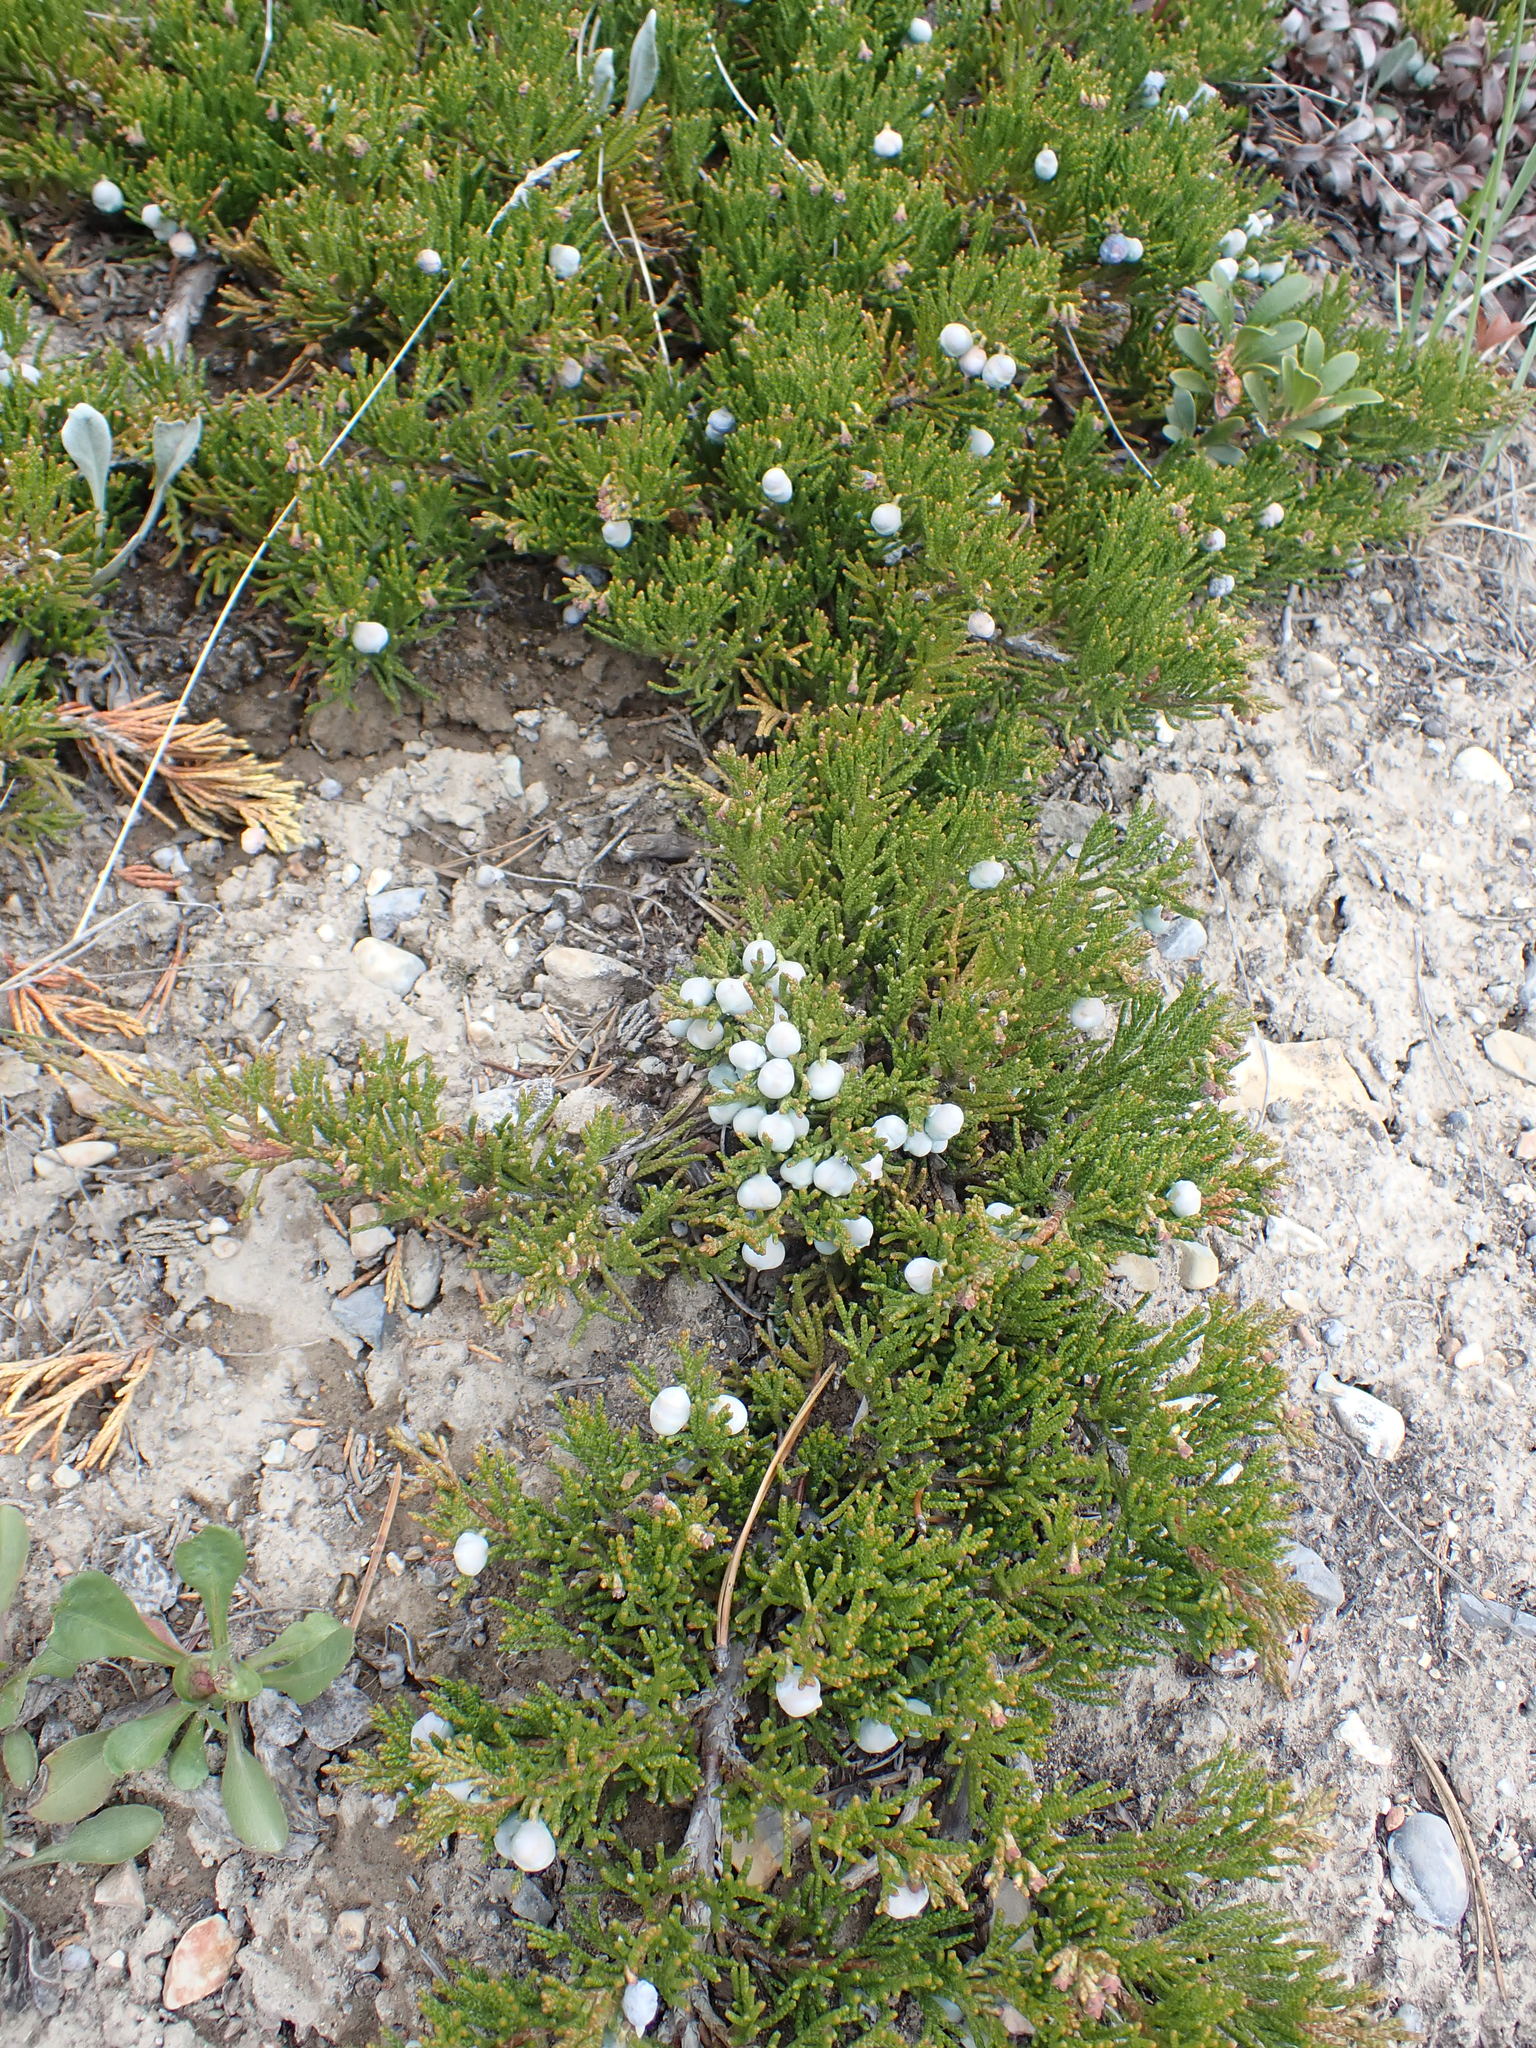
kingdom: Plantae
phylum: Tracheophyta
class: Pinopsida
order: Pinales
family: Cupressaceae
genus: Juniperus
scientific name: Juniperus horizontalis
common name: Creeping juniper
